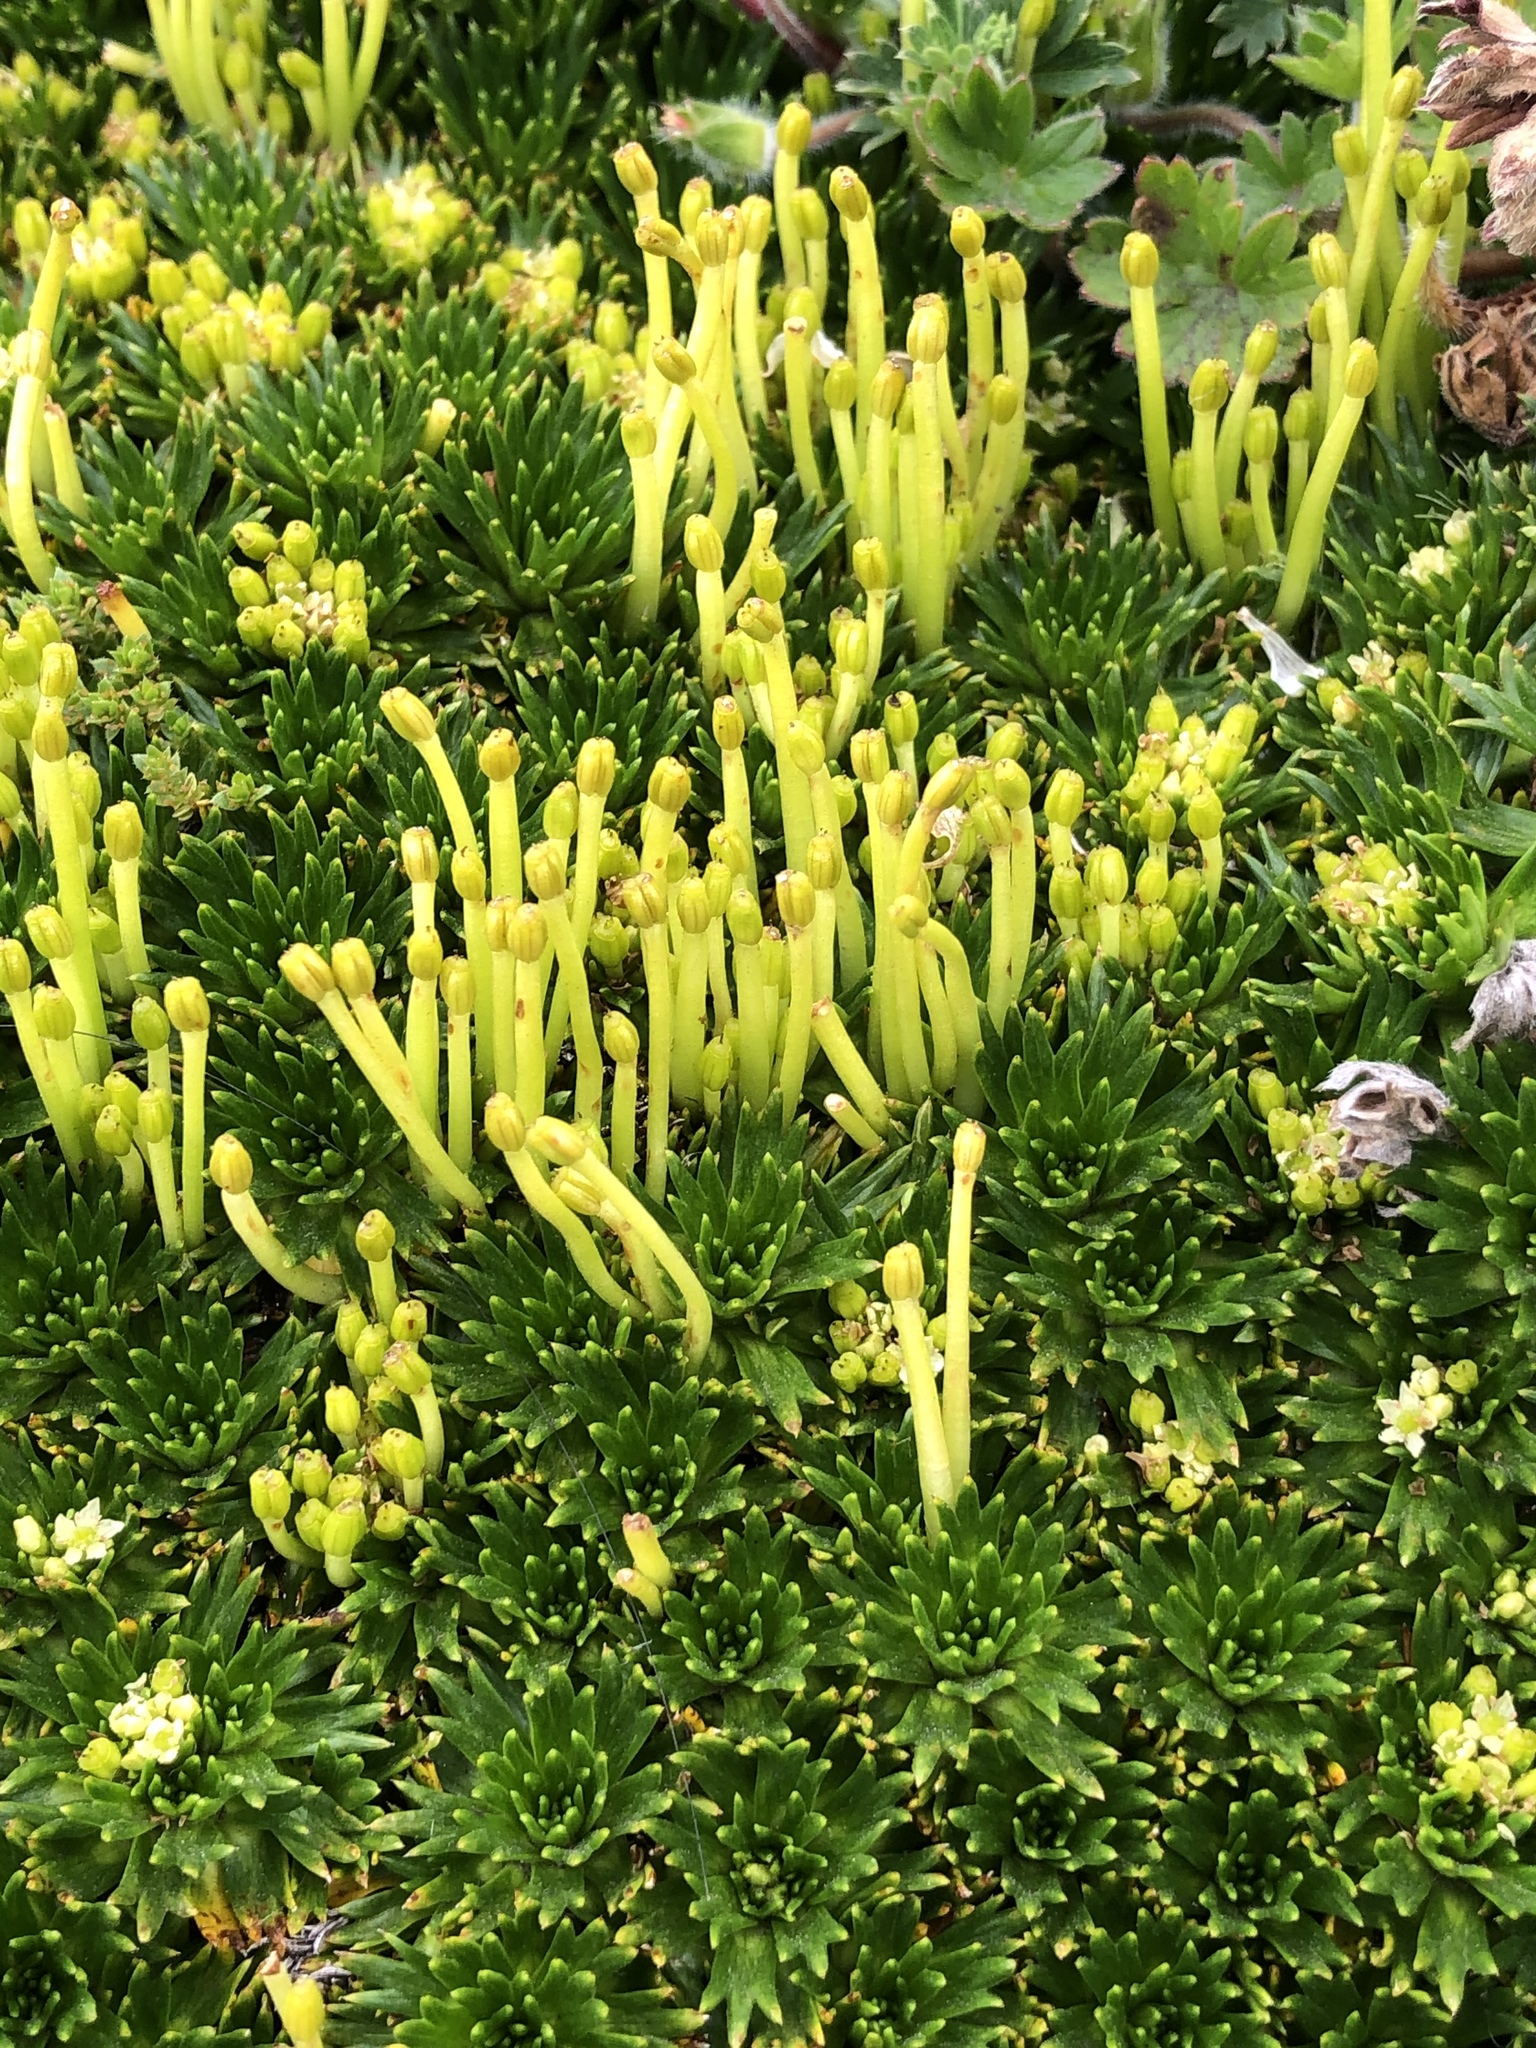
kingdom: Plantae
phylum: Tracheophyta
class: Magnoliopsida
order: Apiales
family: Apiaceae
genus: Azorella
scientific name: Azorella pedunculata
